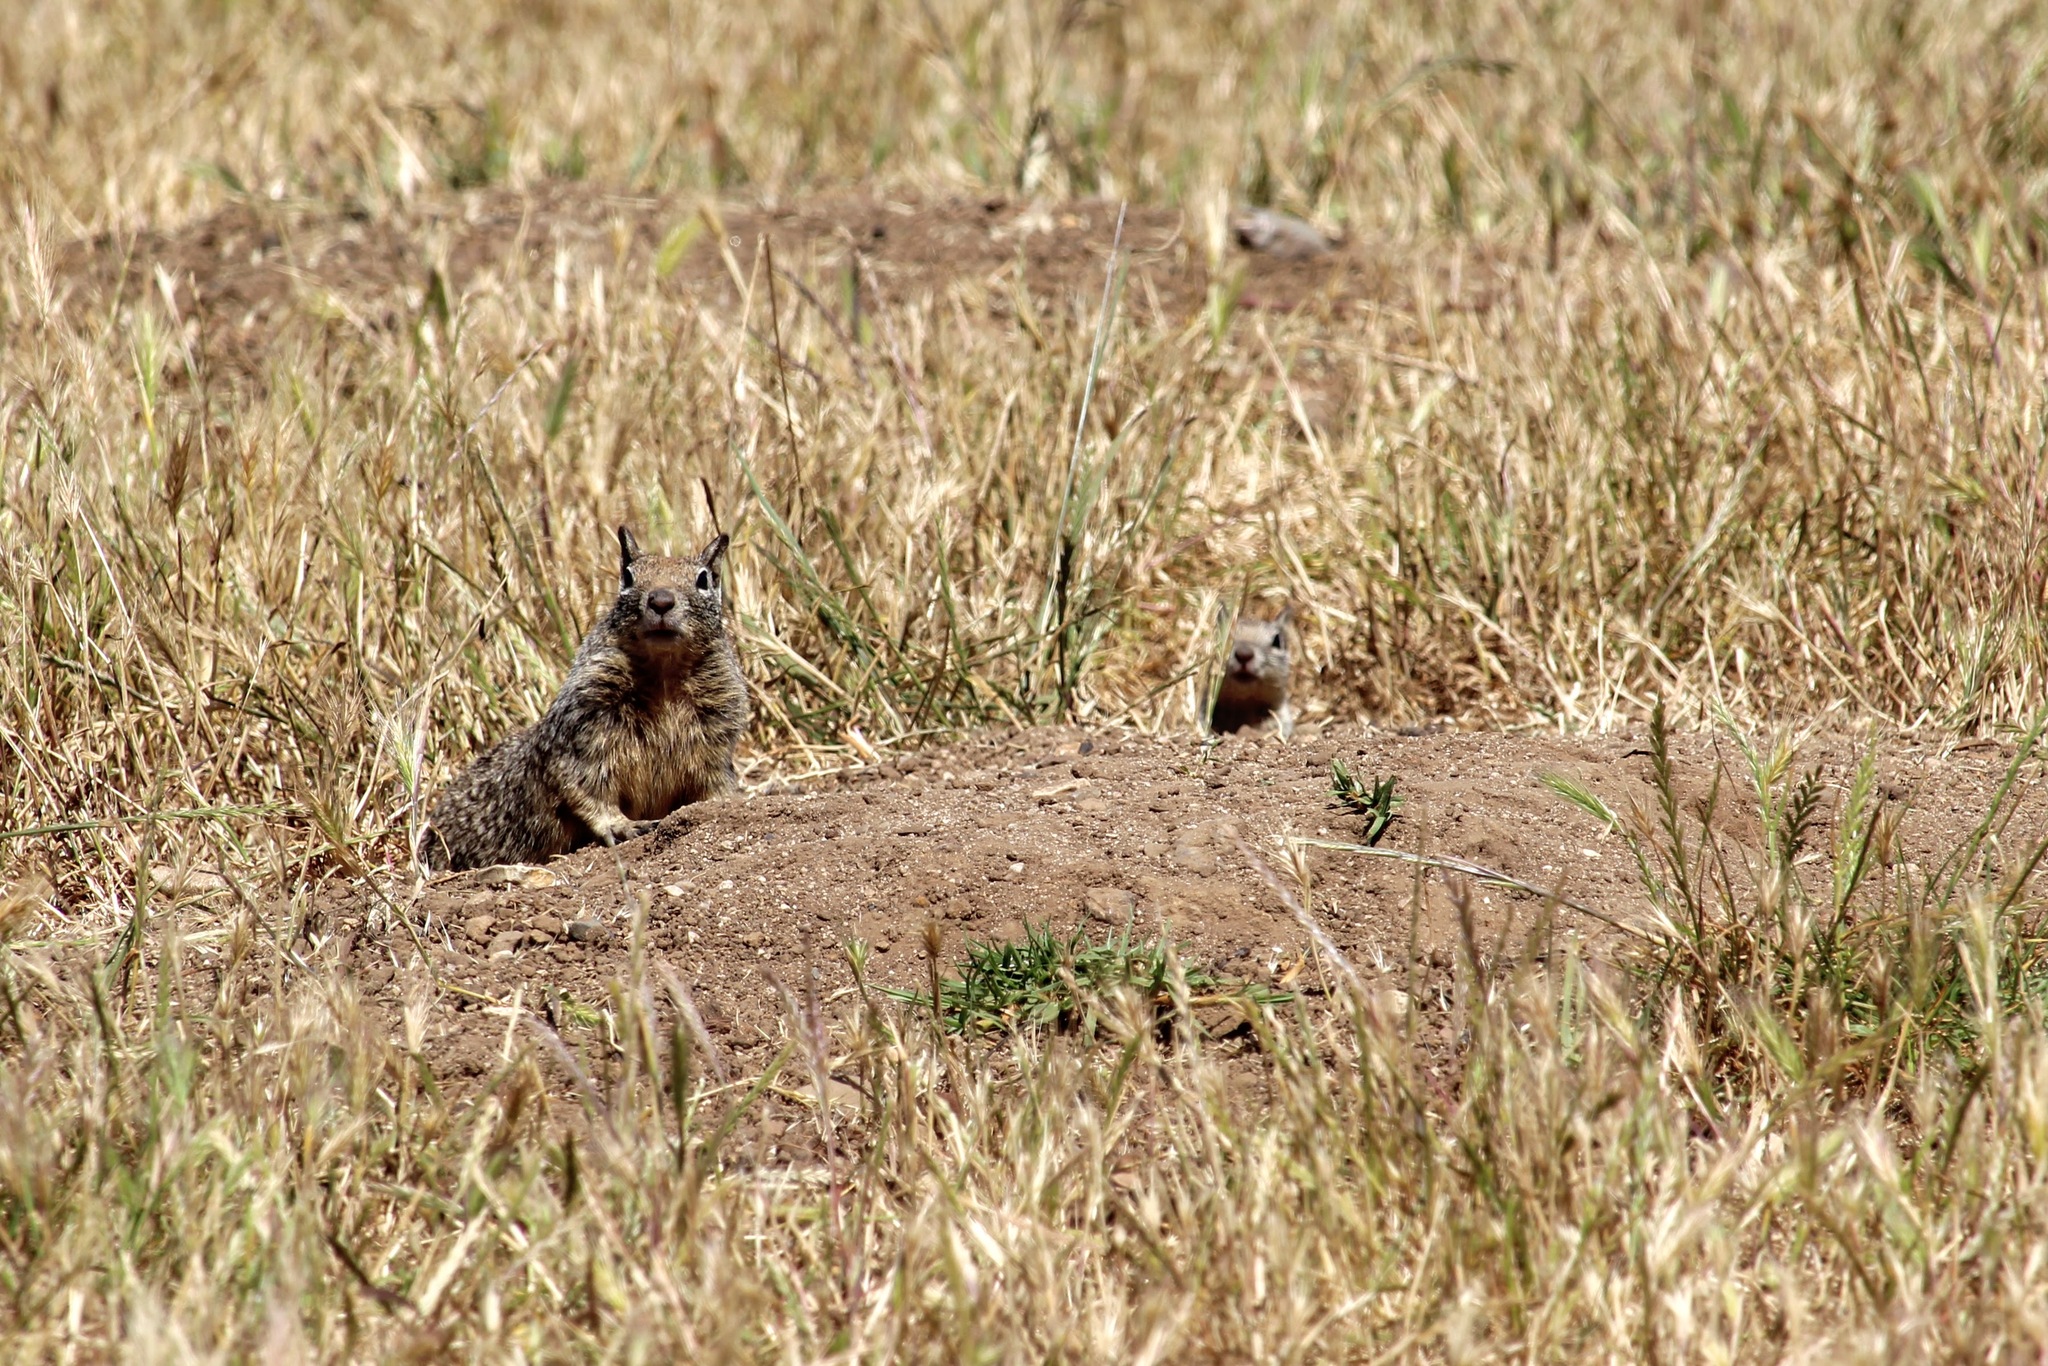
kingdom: Animalia
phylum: Chordata
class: Mammalia
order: Rodentia
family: Sciuridae
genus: Otospermophilus
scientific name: Otospermophilus beecheyi
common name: California ground squirrel
